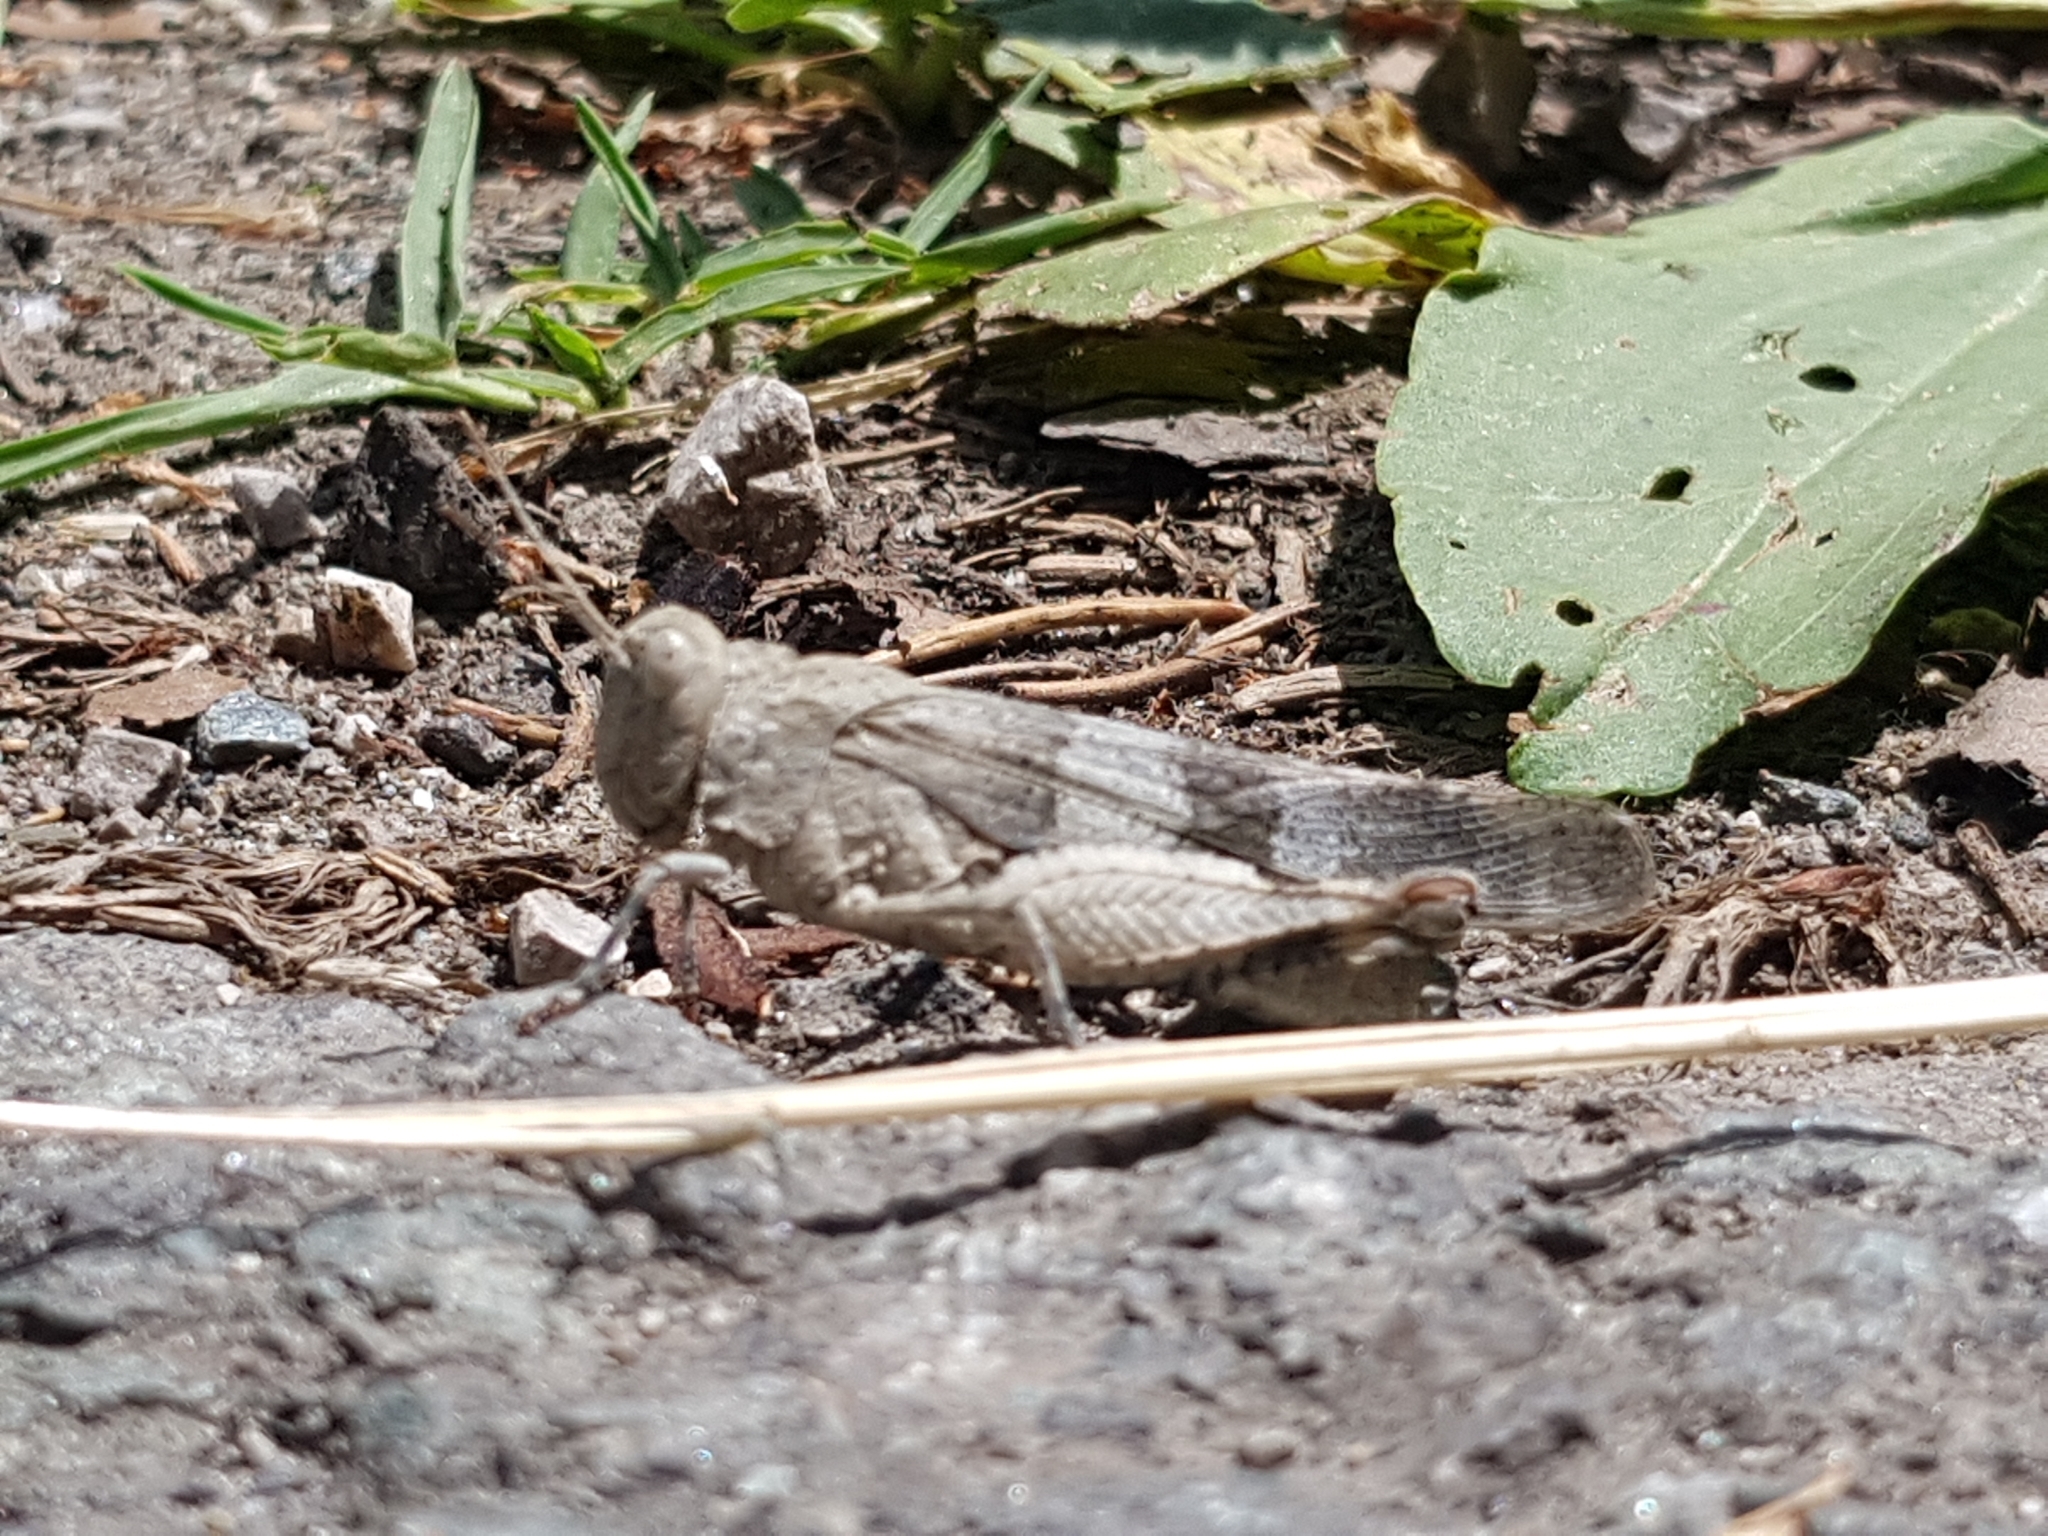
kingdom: Animalia
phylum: Arthropoda
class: Insecta
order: Orthoptera
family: Acrididae
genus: Oedipoda
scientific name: Oedipoda caerulescens
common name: Blue-winged grasshopper
